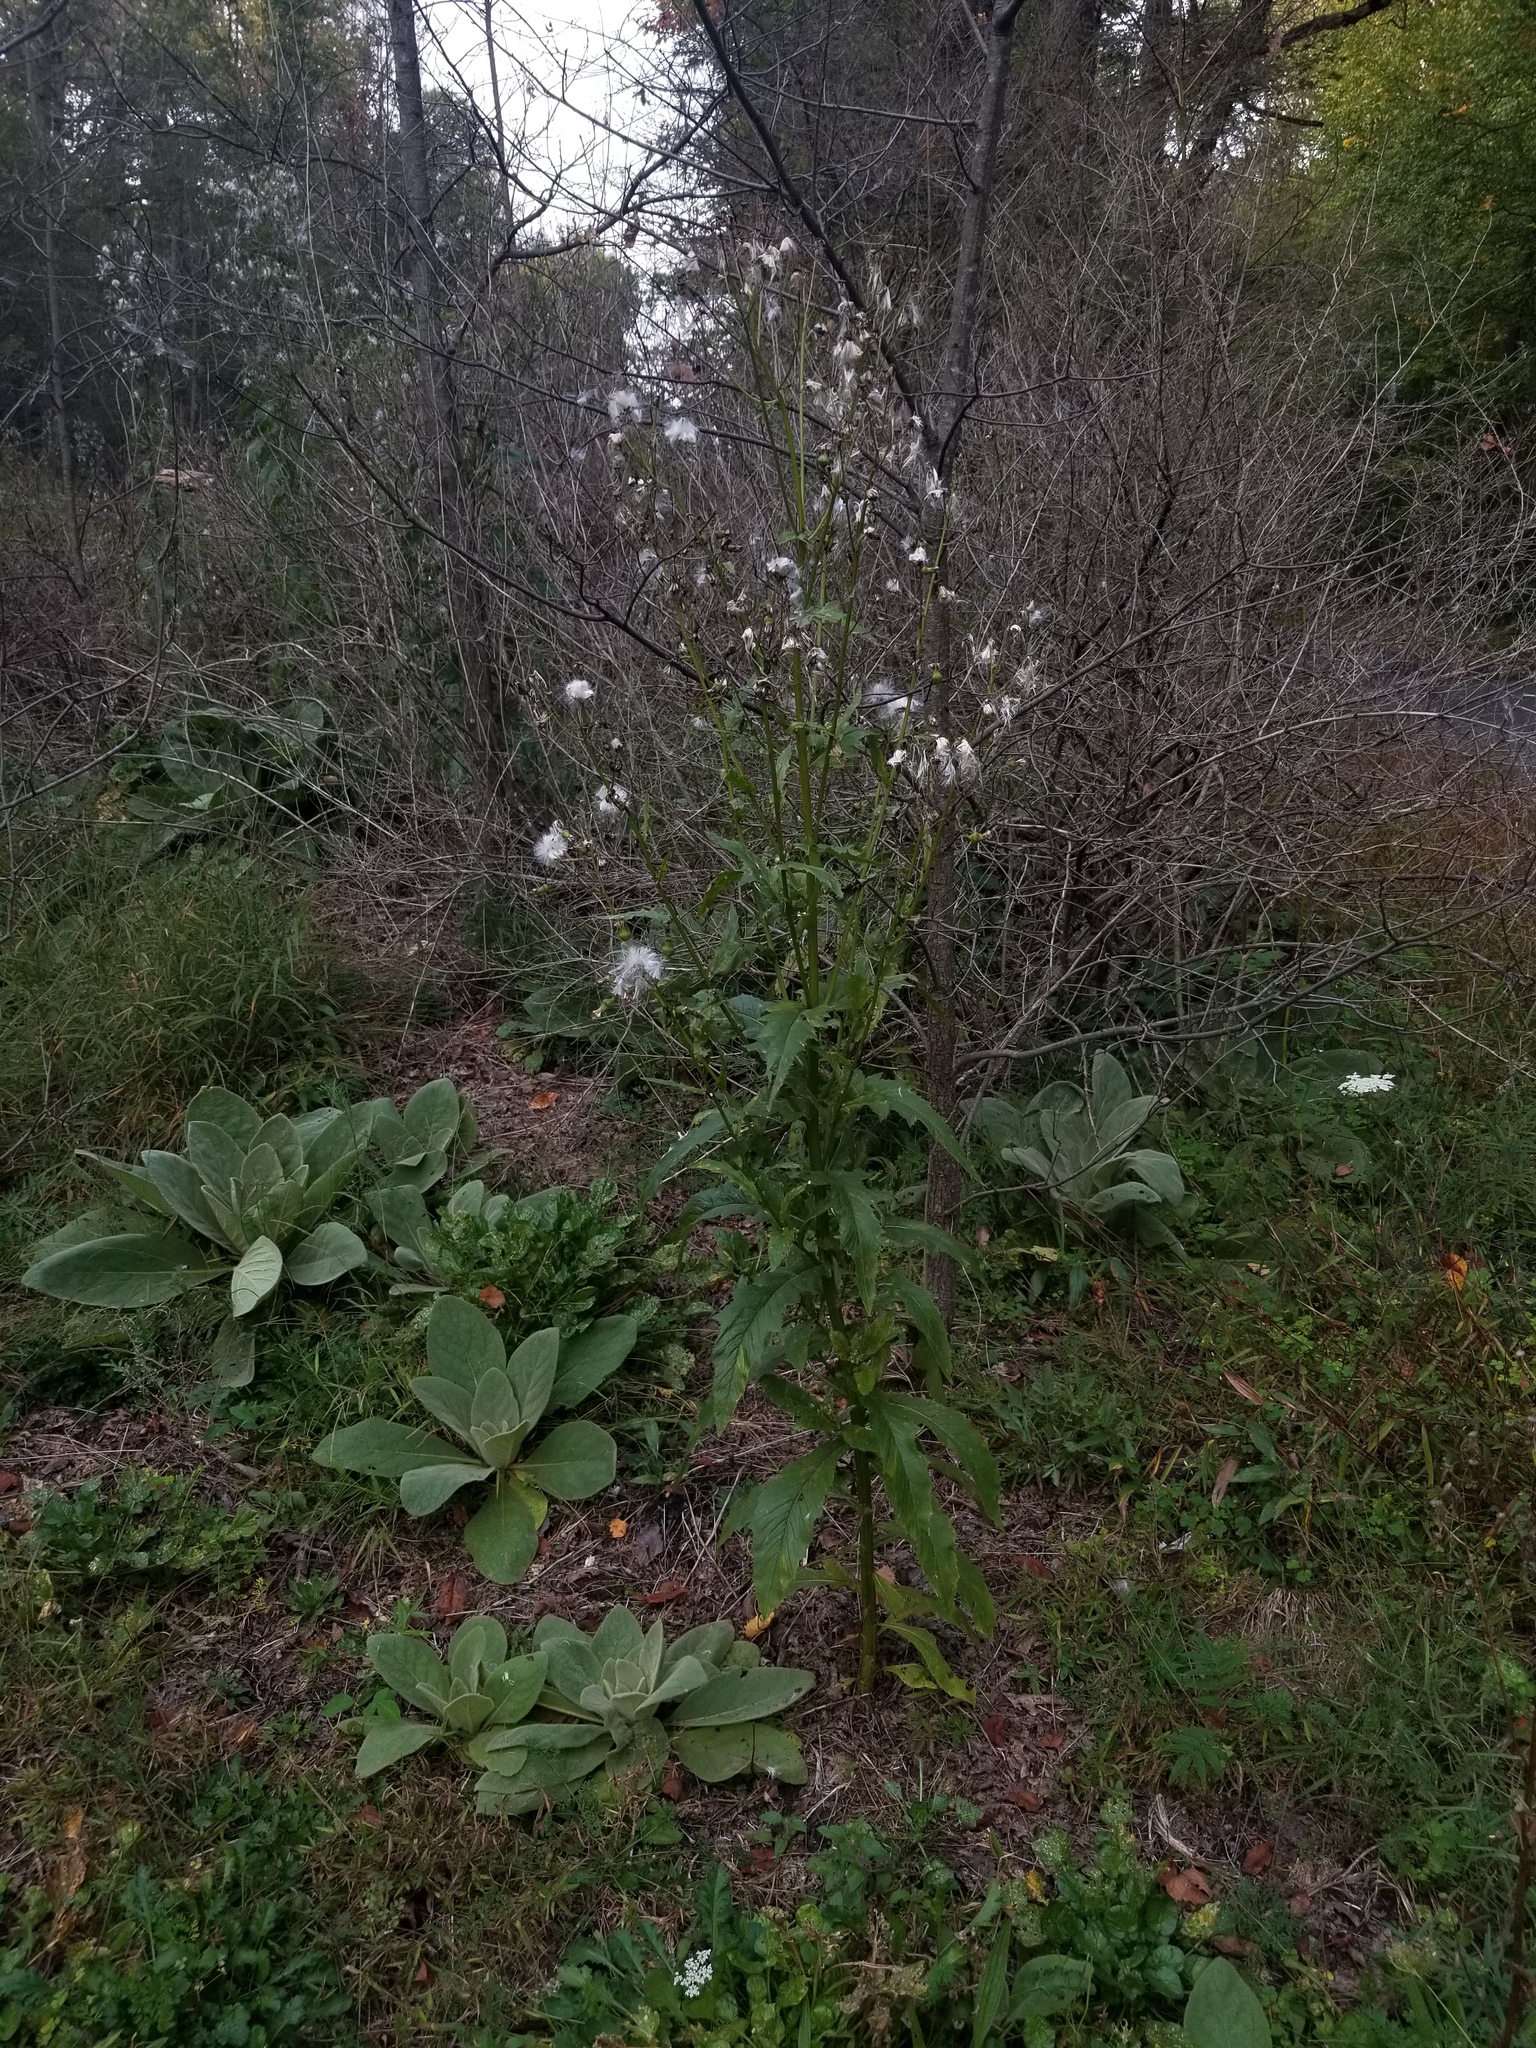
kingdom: Plantae
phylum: Tracheophyta
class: Magnoliopsida
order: Asterales
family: Asteraceae
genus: Erechtites
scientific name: Erechtites hieraciifolius
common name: American burnweed
